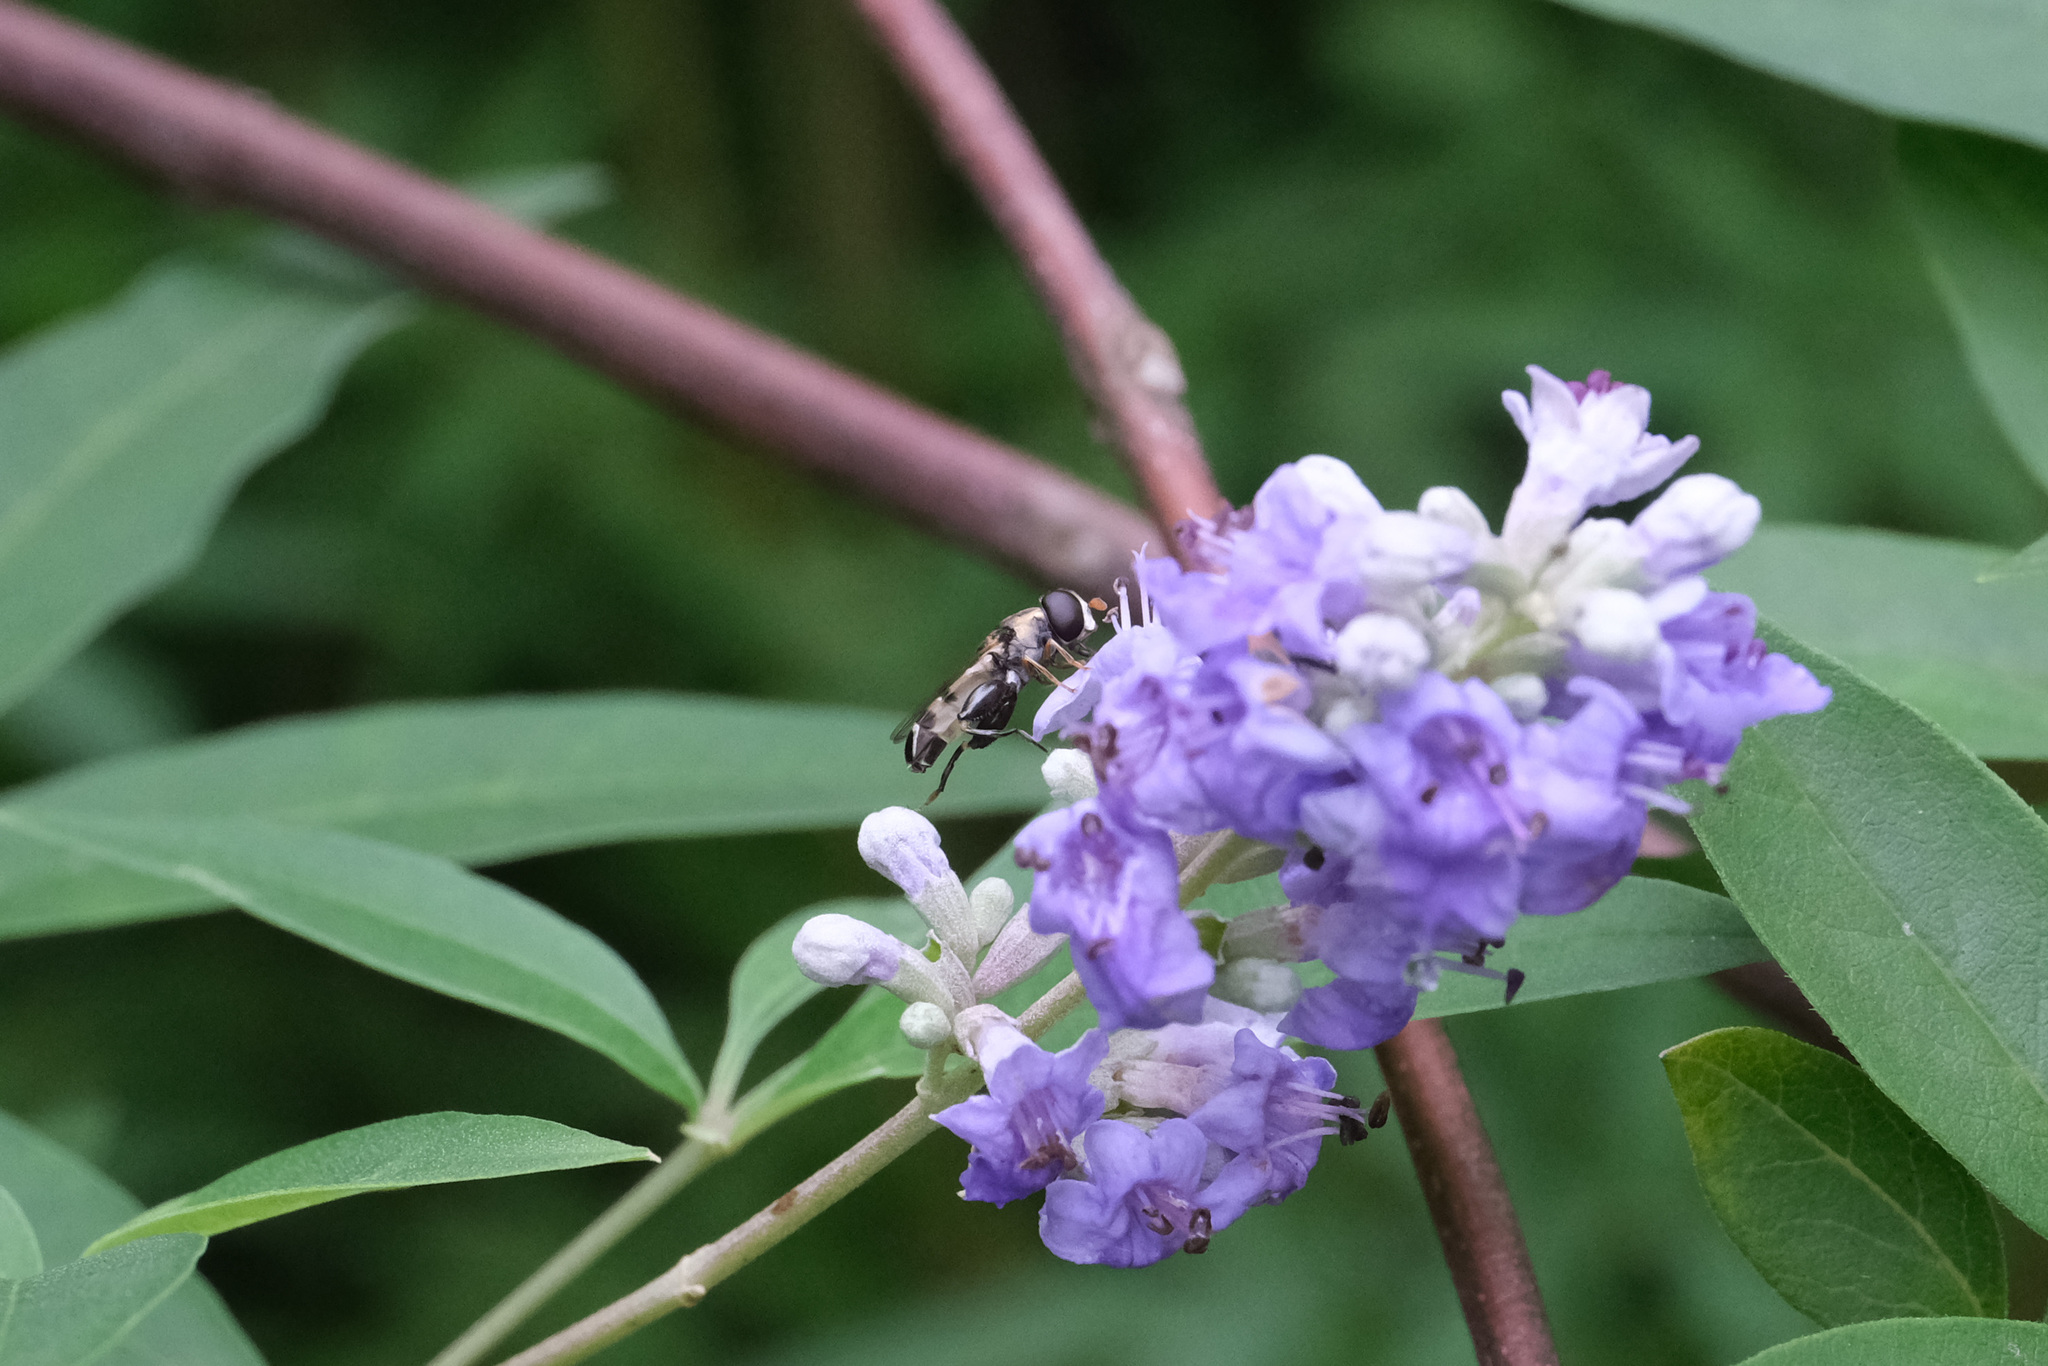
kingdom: Animalia
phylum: Arthropoda
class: Insecta
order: Diptera
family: Syrphidae
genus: Syritta
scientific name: Syritta orientalis
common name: Syrphid fly
